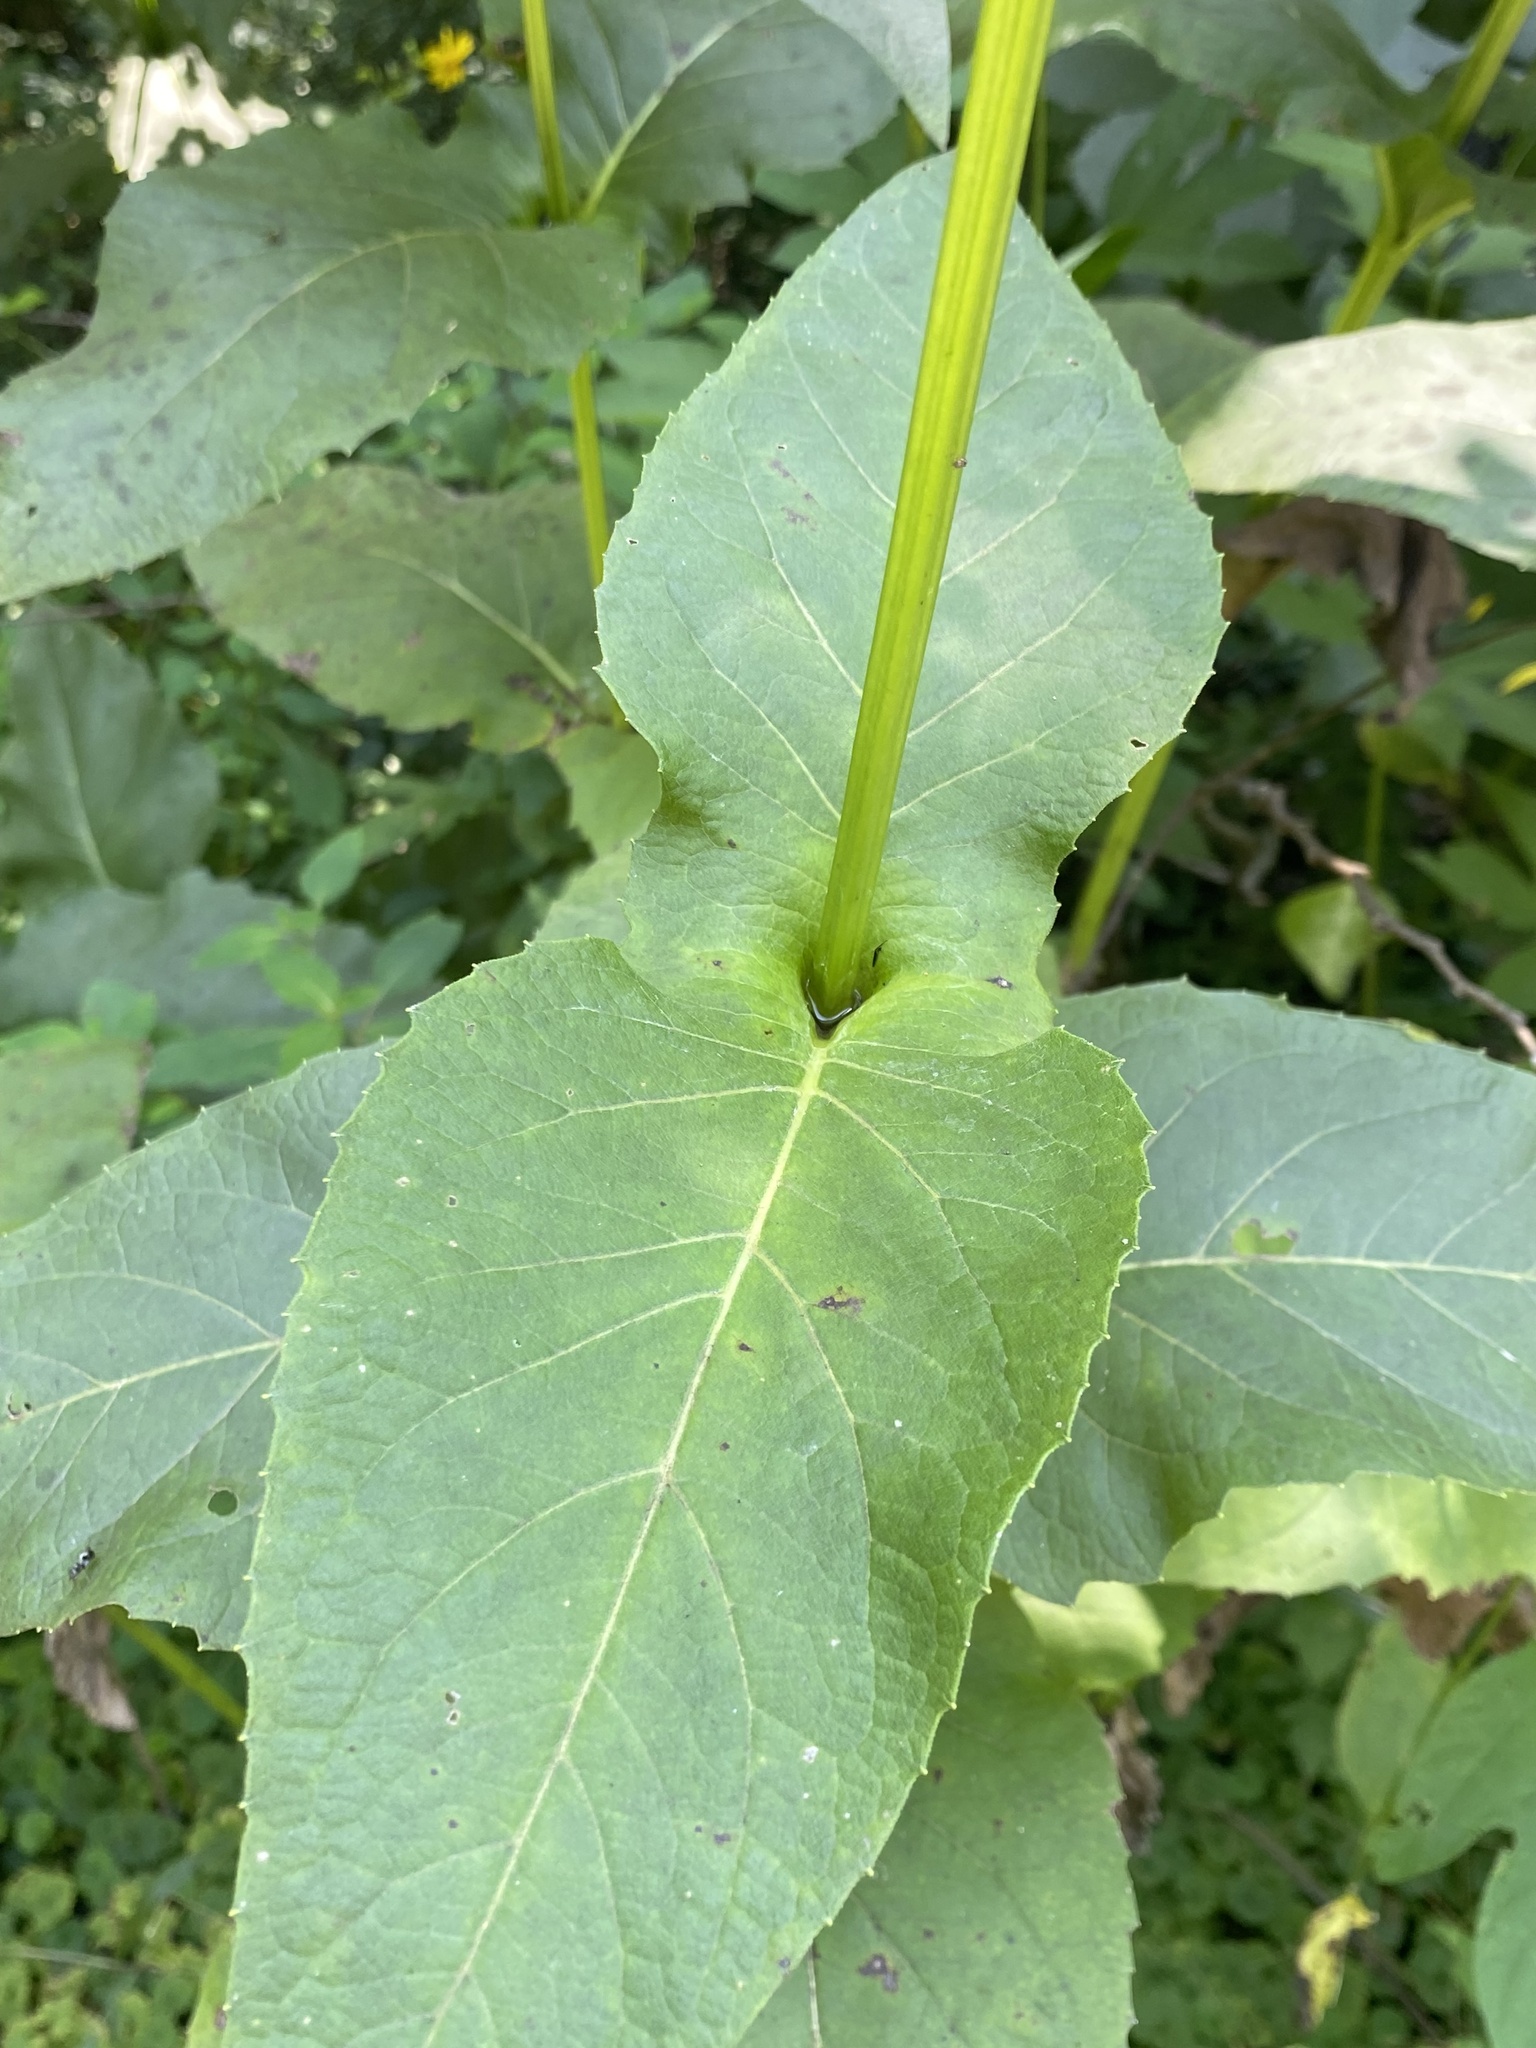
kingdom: Plantae
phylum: Tracheophyta
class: Magnoliopsida
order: Asterales
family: Asteraceae
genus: Silphium
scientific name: Silphium perfoliatum
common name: Cup-plant
